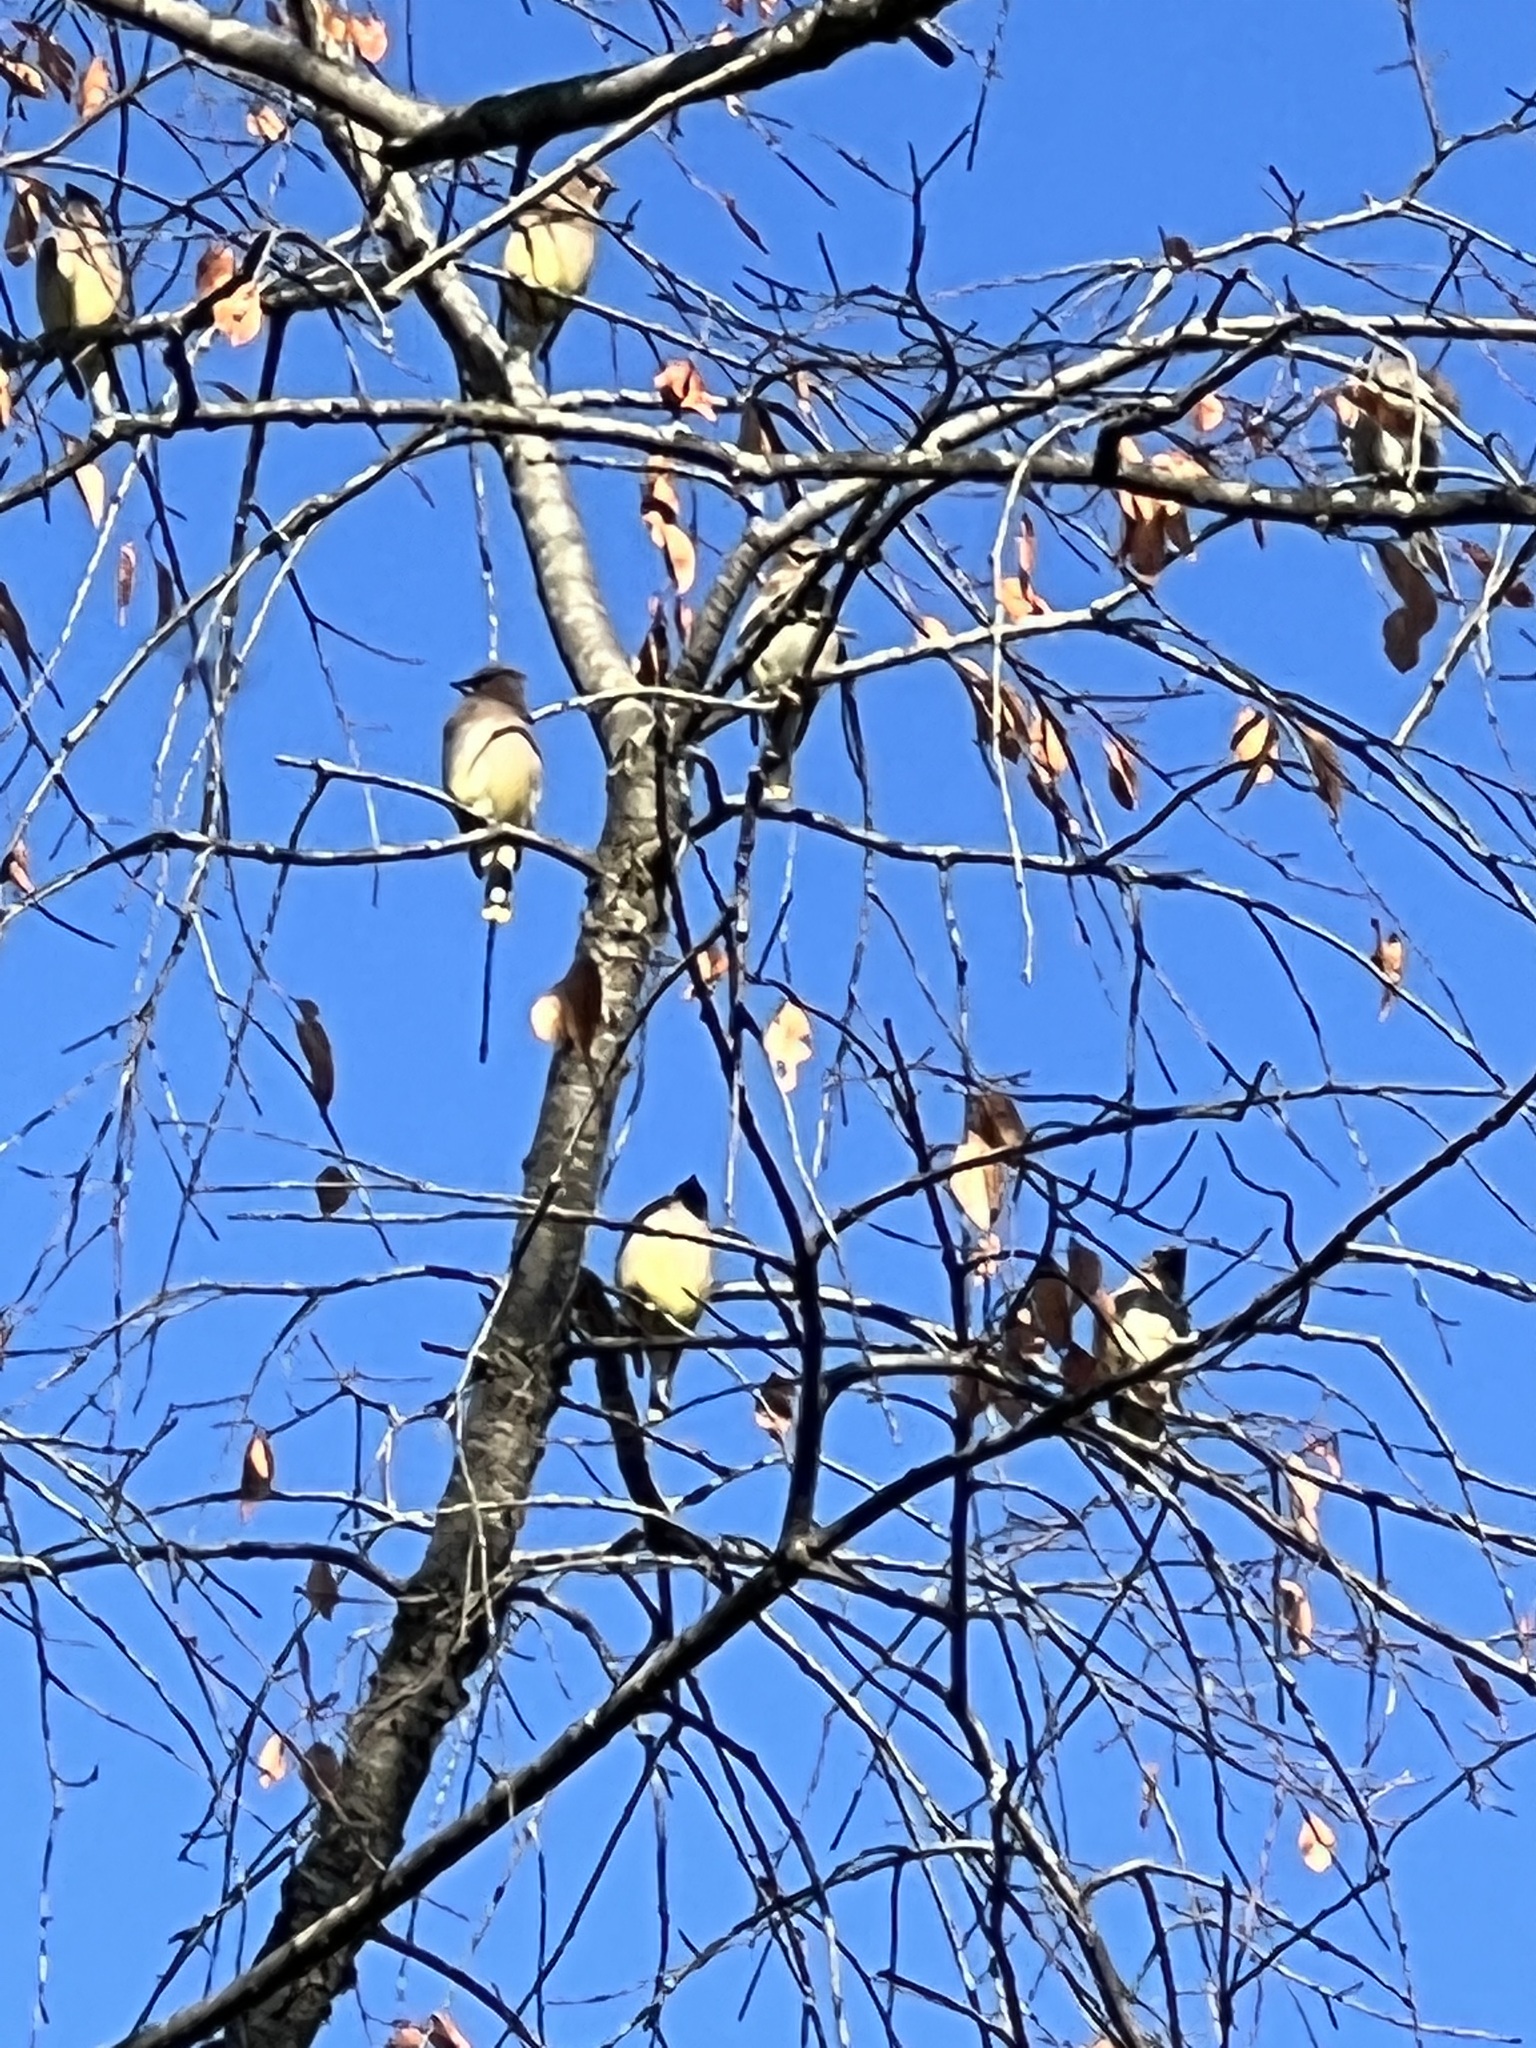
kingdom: Animalia
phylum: Chordata
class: Aves
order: Passeriformes
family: Bombycillidae
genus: Bombycilla
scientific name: Bombycilla cedrorum
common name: Cedar waxwing
